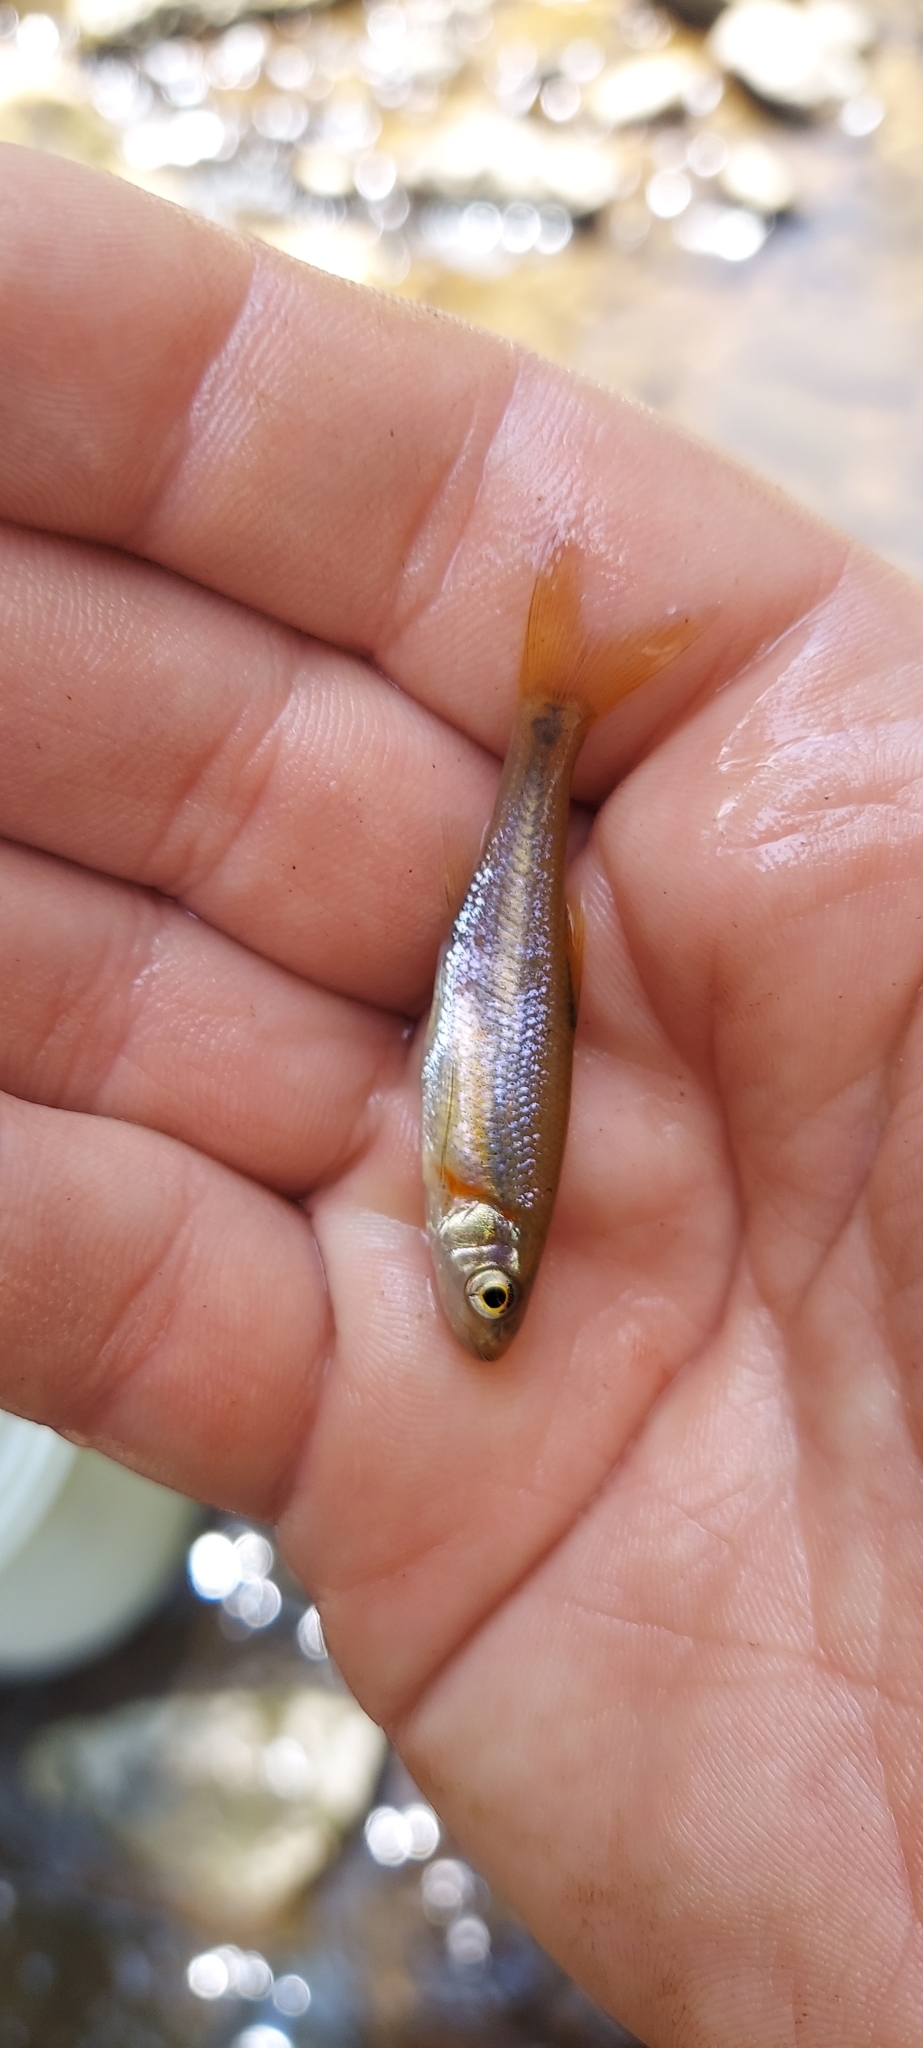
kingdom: Animalia
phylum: Chordata
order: Cypriniformes
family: Cyprinidae
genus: Clinostomus
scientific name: Clinostomus funduloides
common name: Rosyside dace
